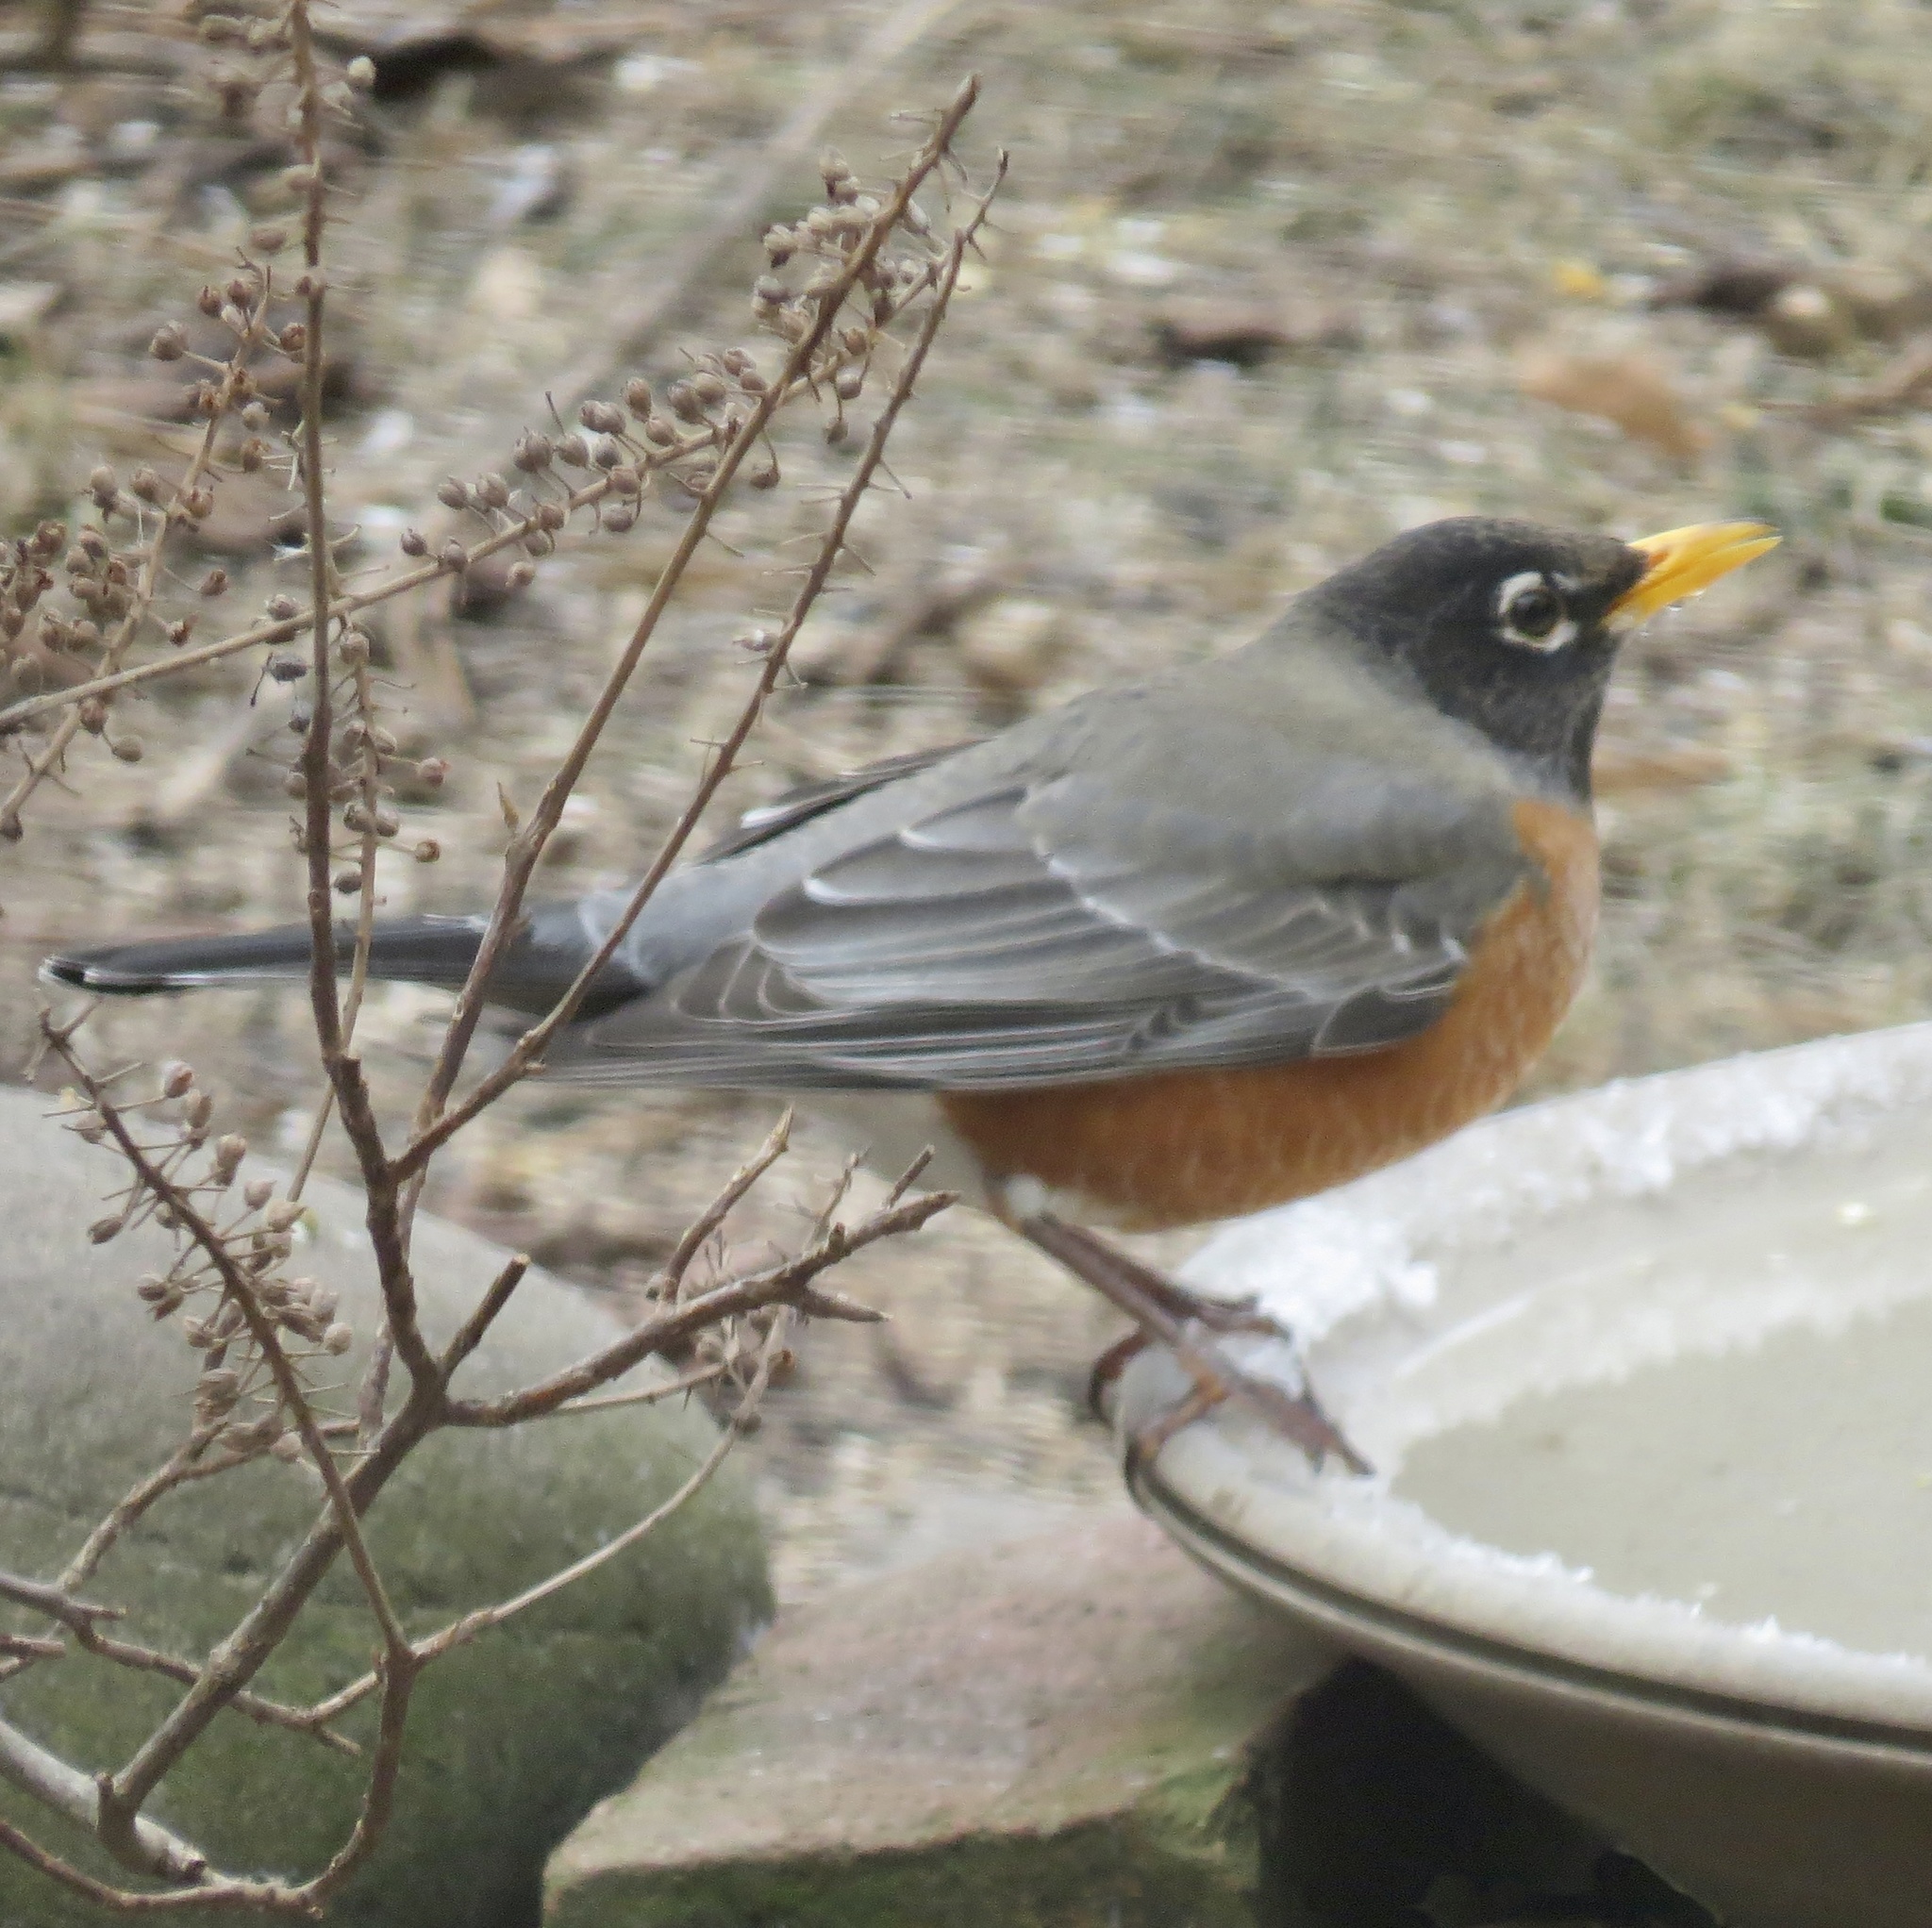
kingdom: Animalia
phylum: Chordata
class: Aves
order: Passeriformes
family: Turdidae
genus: Turdus
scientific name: Turdus migratorius
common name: American robin
